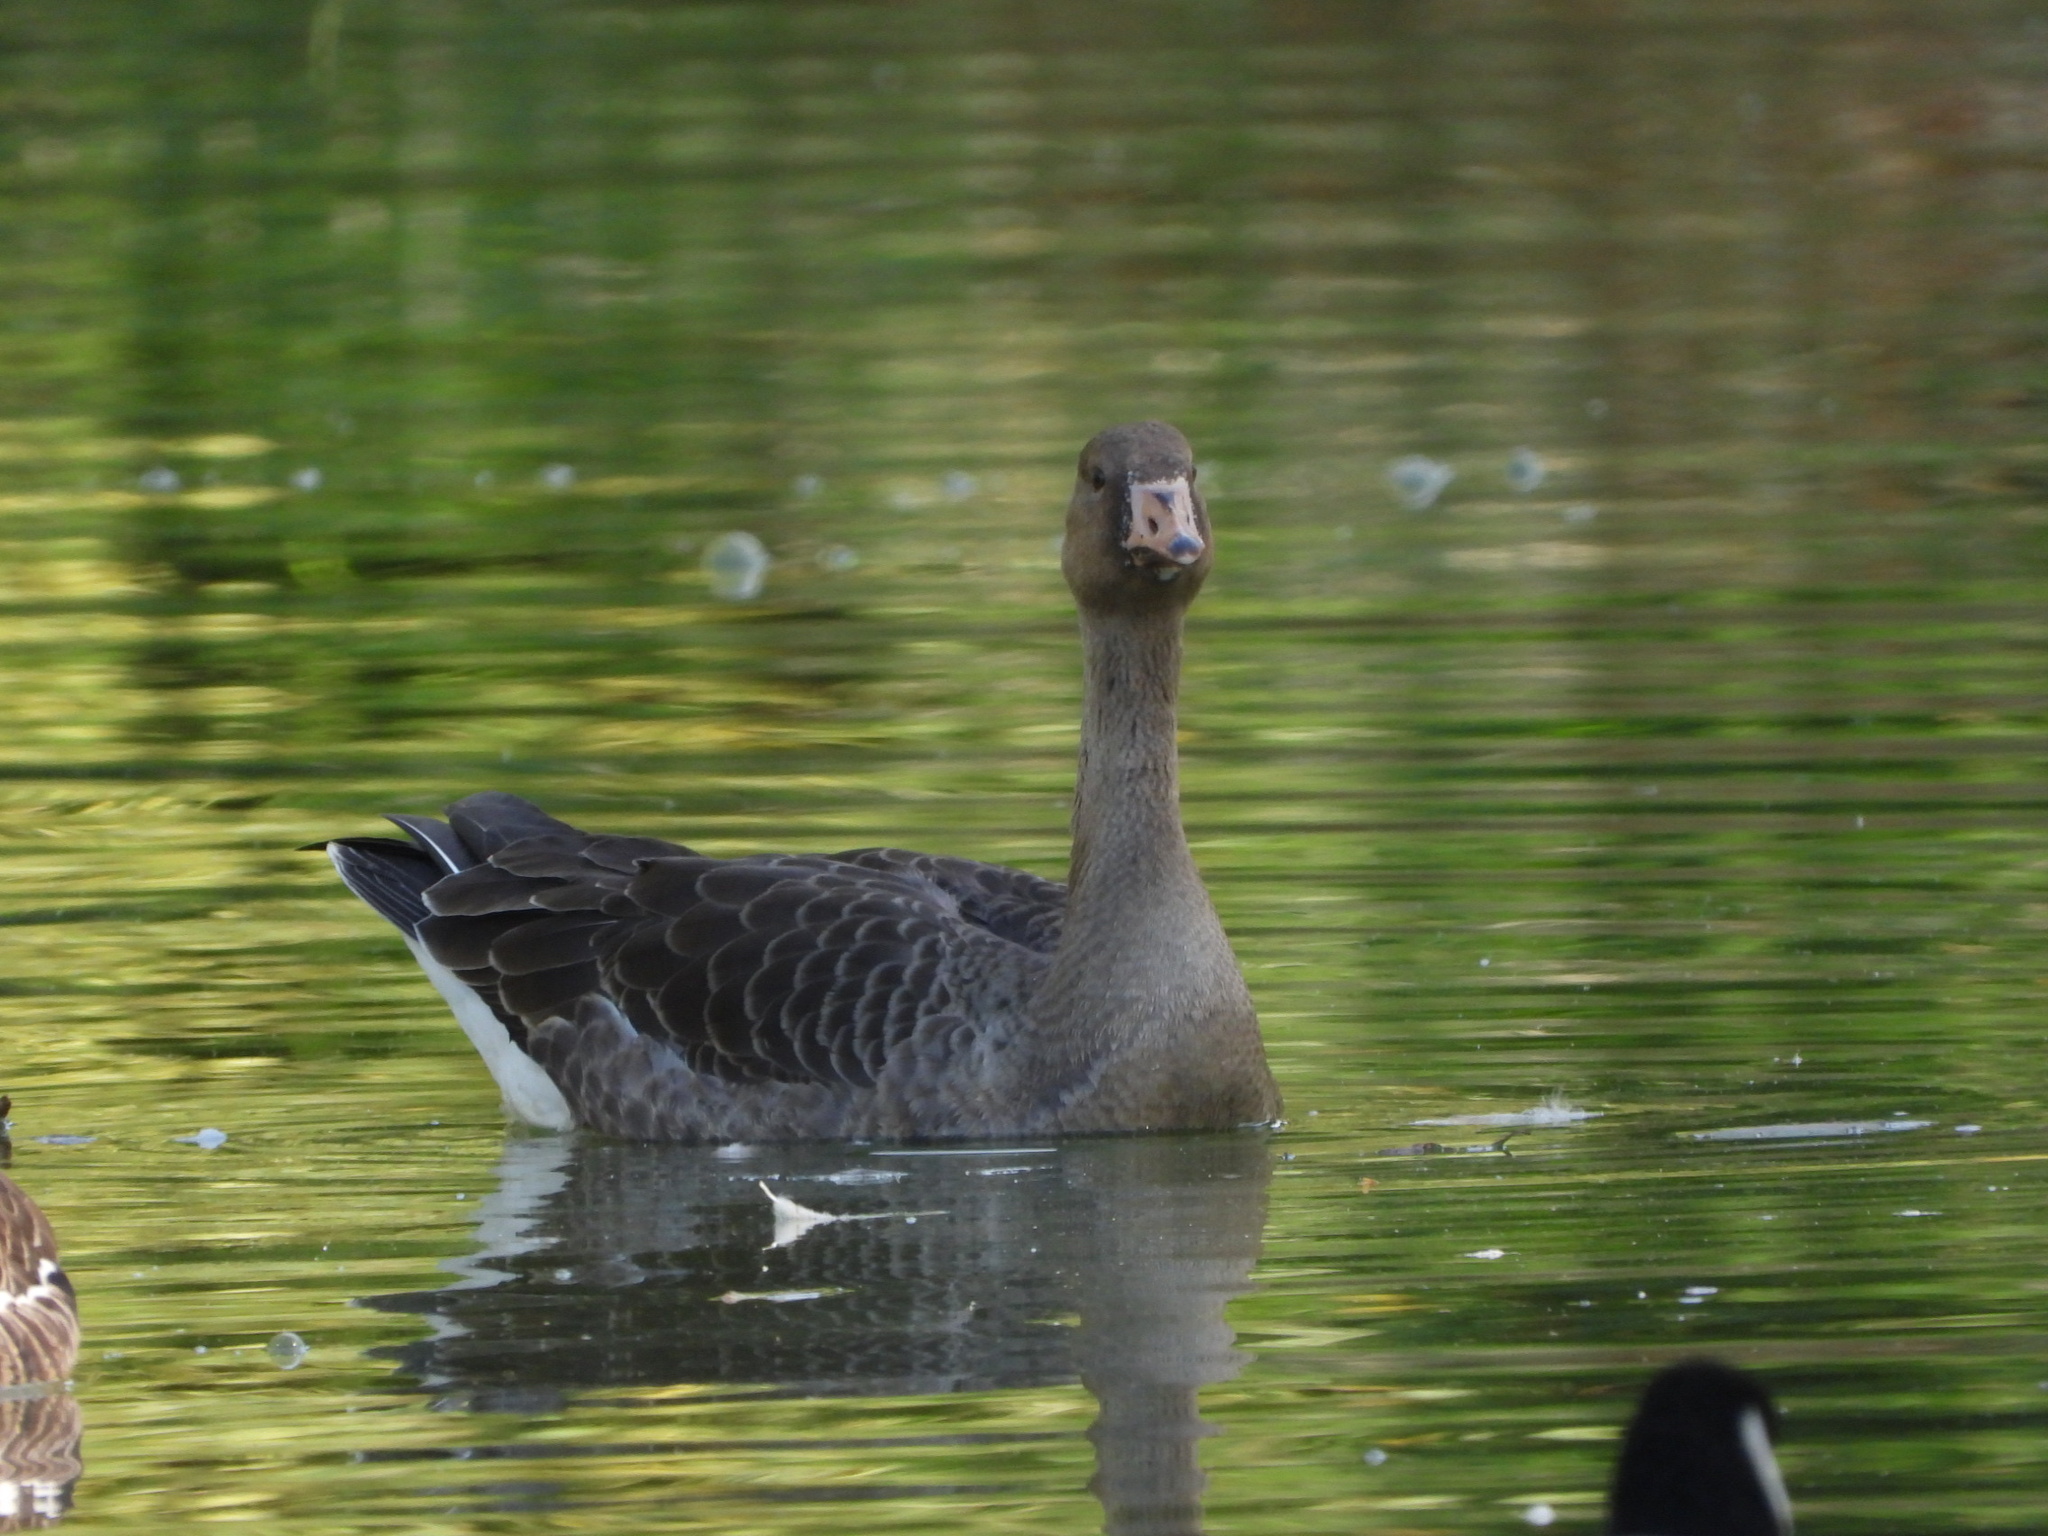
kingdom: Animalia
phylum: Chordata
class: Aves
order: Anseriformes
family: Anatidae
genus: Anser
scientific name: Anser albifrons
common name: Greater white-fronted goose
